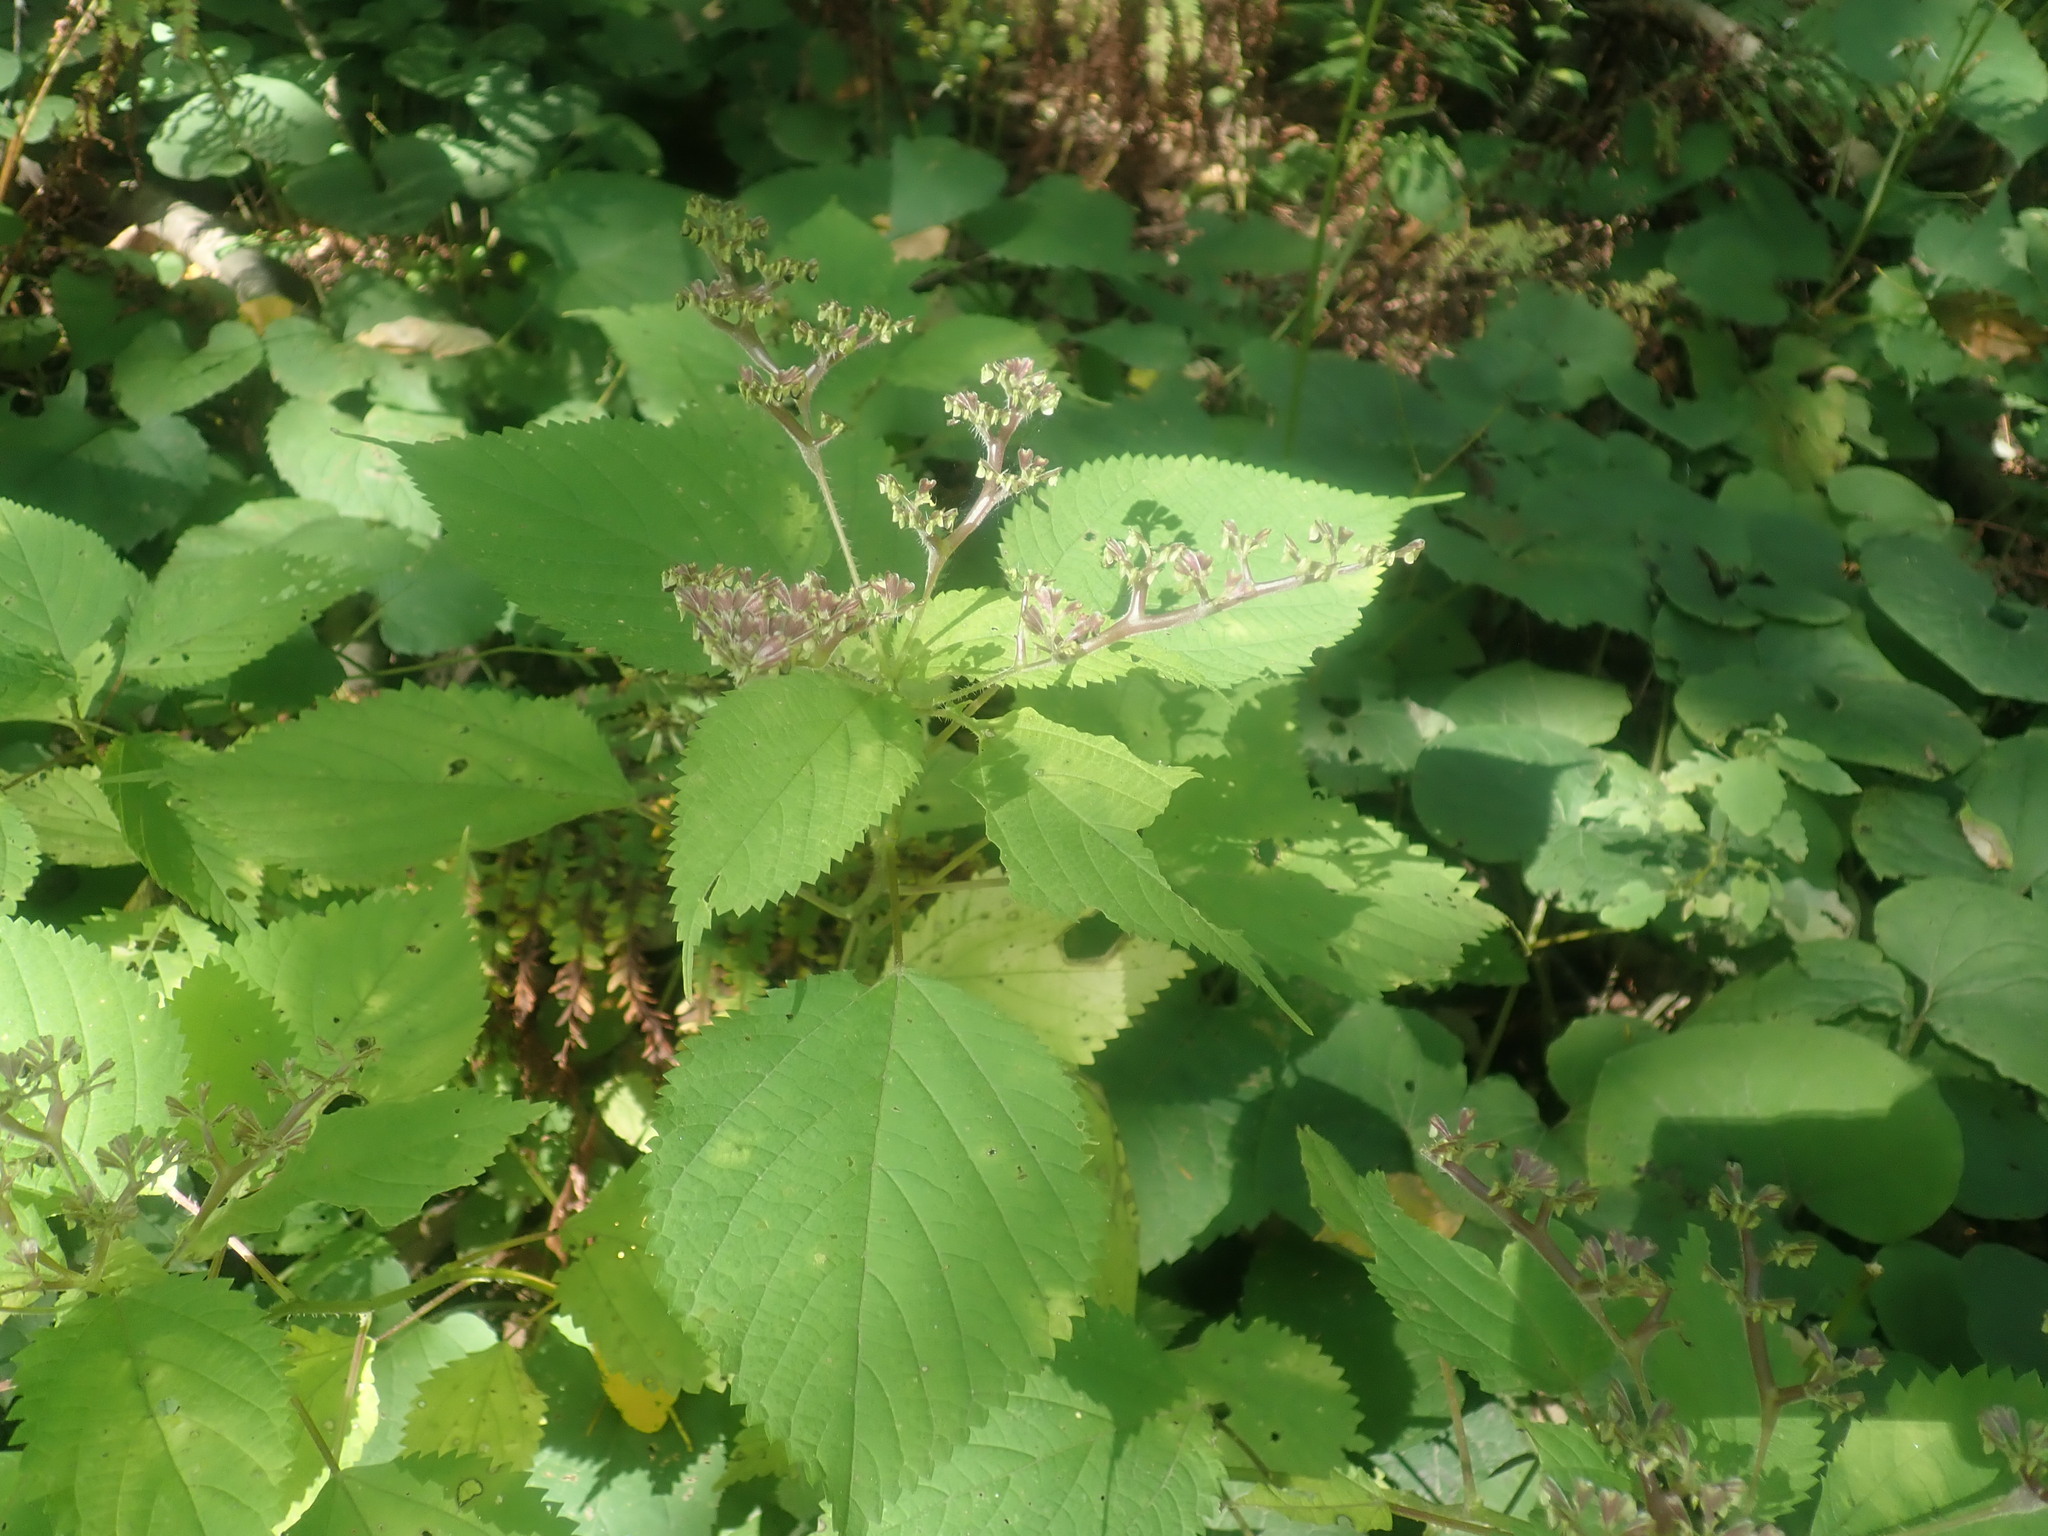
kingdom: Plantae
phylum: Tracheophyta
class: Magnoliopsida
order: Rosales
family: Urticaceae
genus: Laportea
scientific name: Laportea canadensis
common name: Canada nettle
